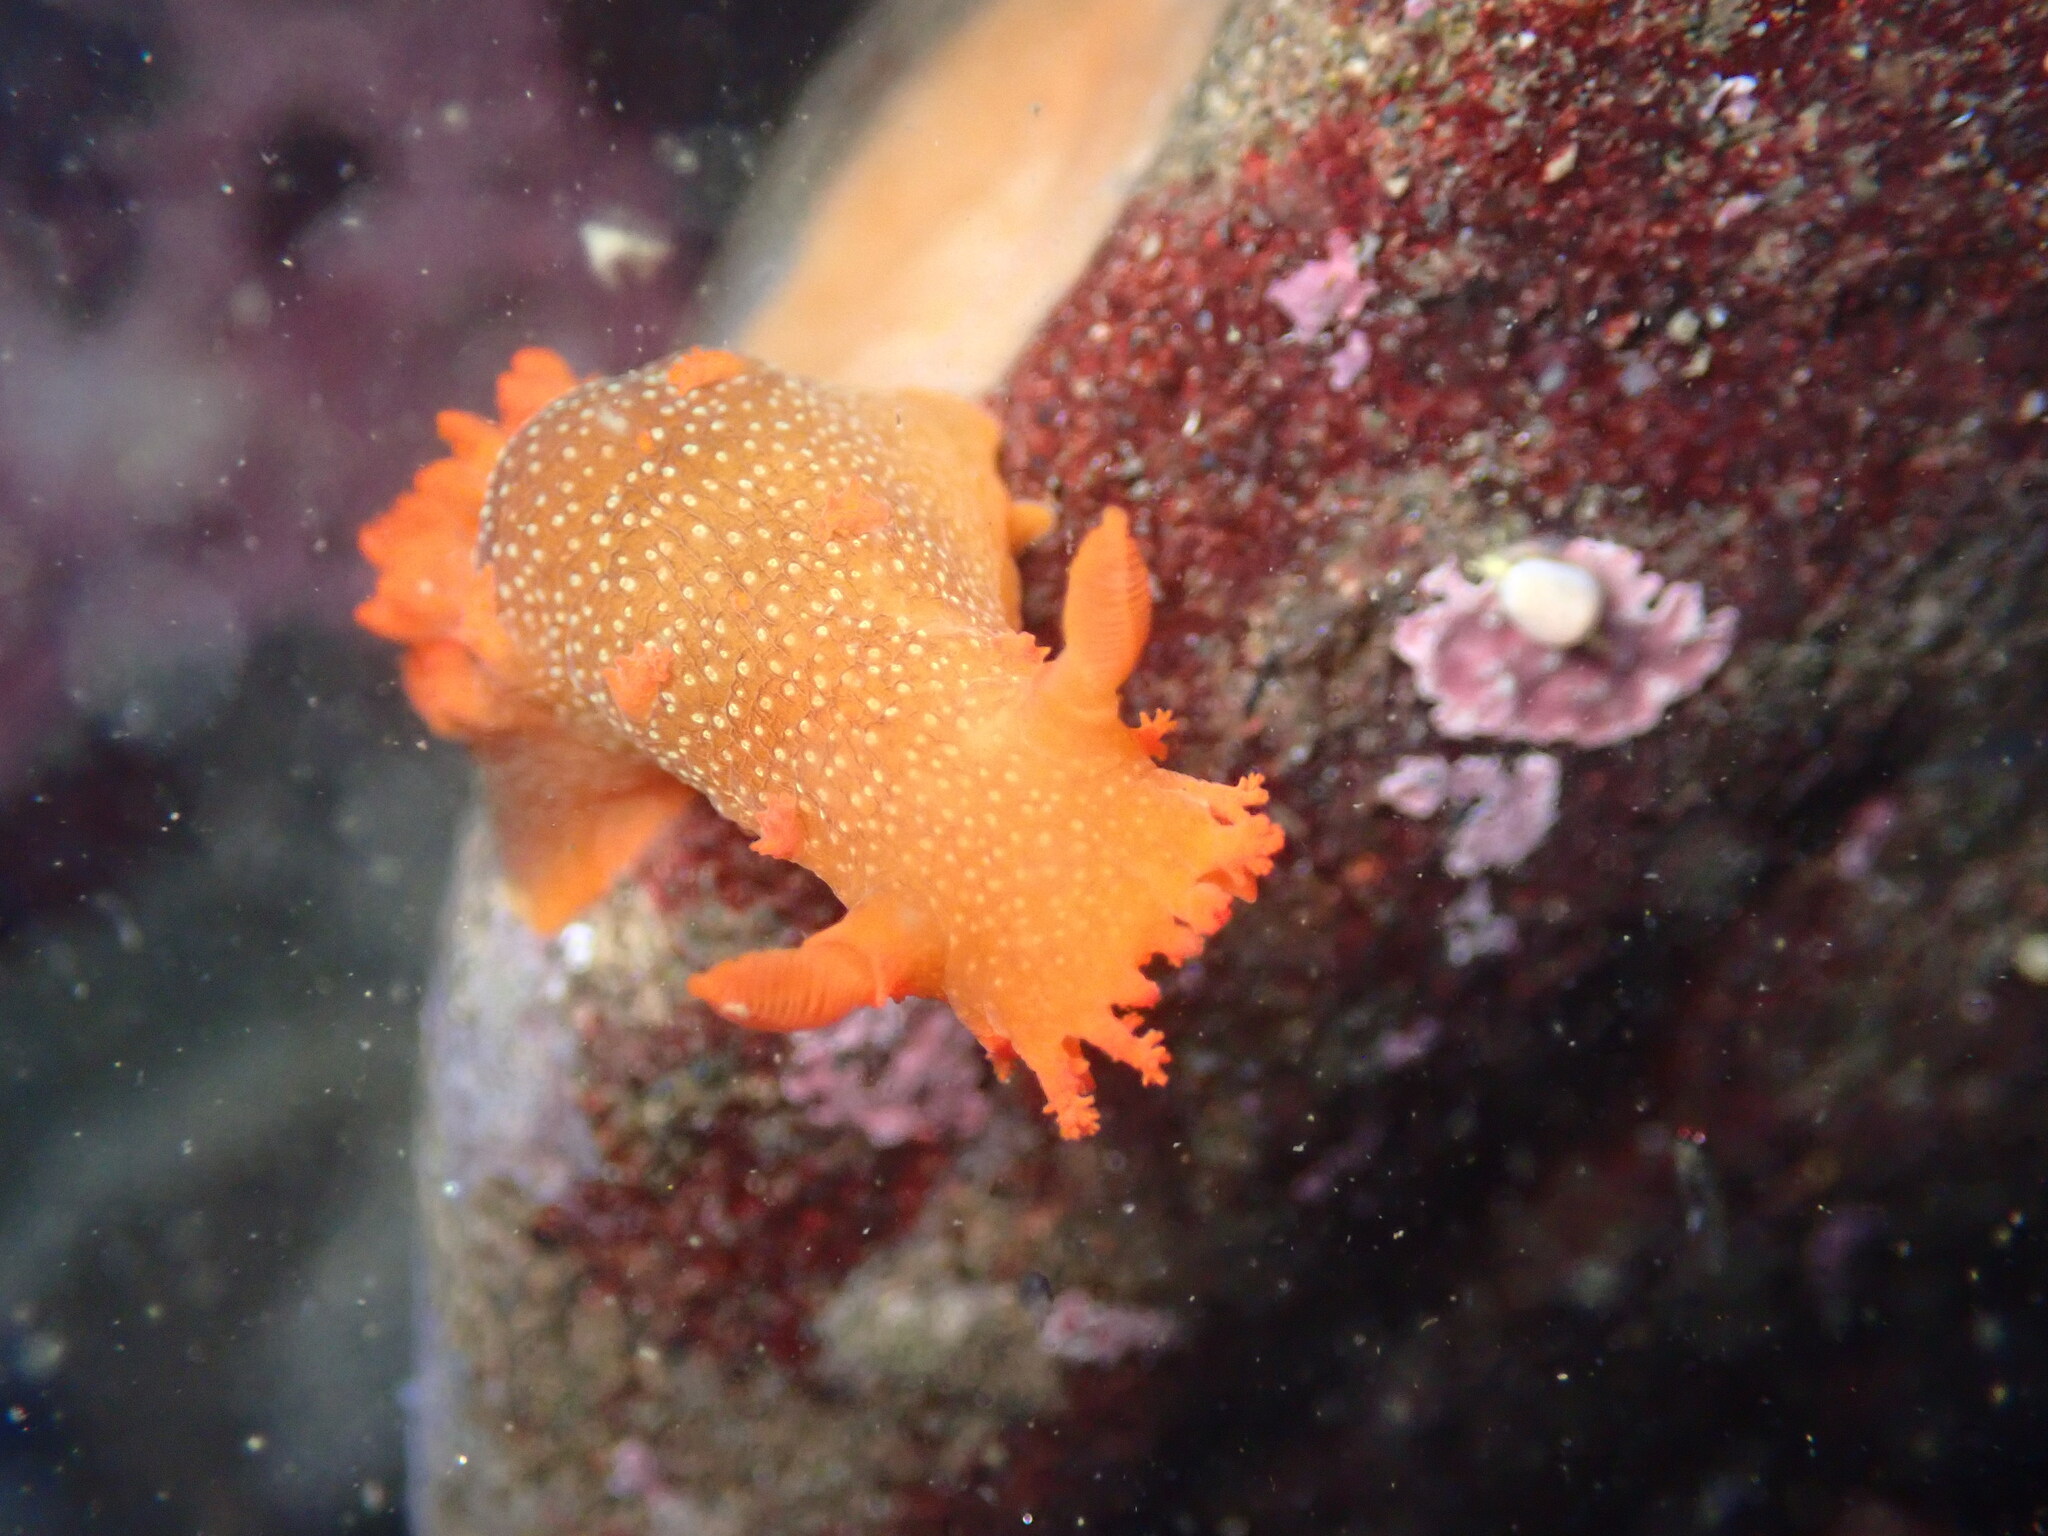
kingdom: Animalia
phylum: Mollusca
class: Gastropoda
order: Nudibranchia
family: Polyceridae
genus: Triopha
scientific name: Triopha maculata
